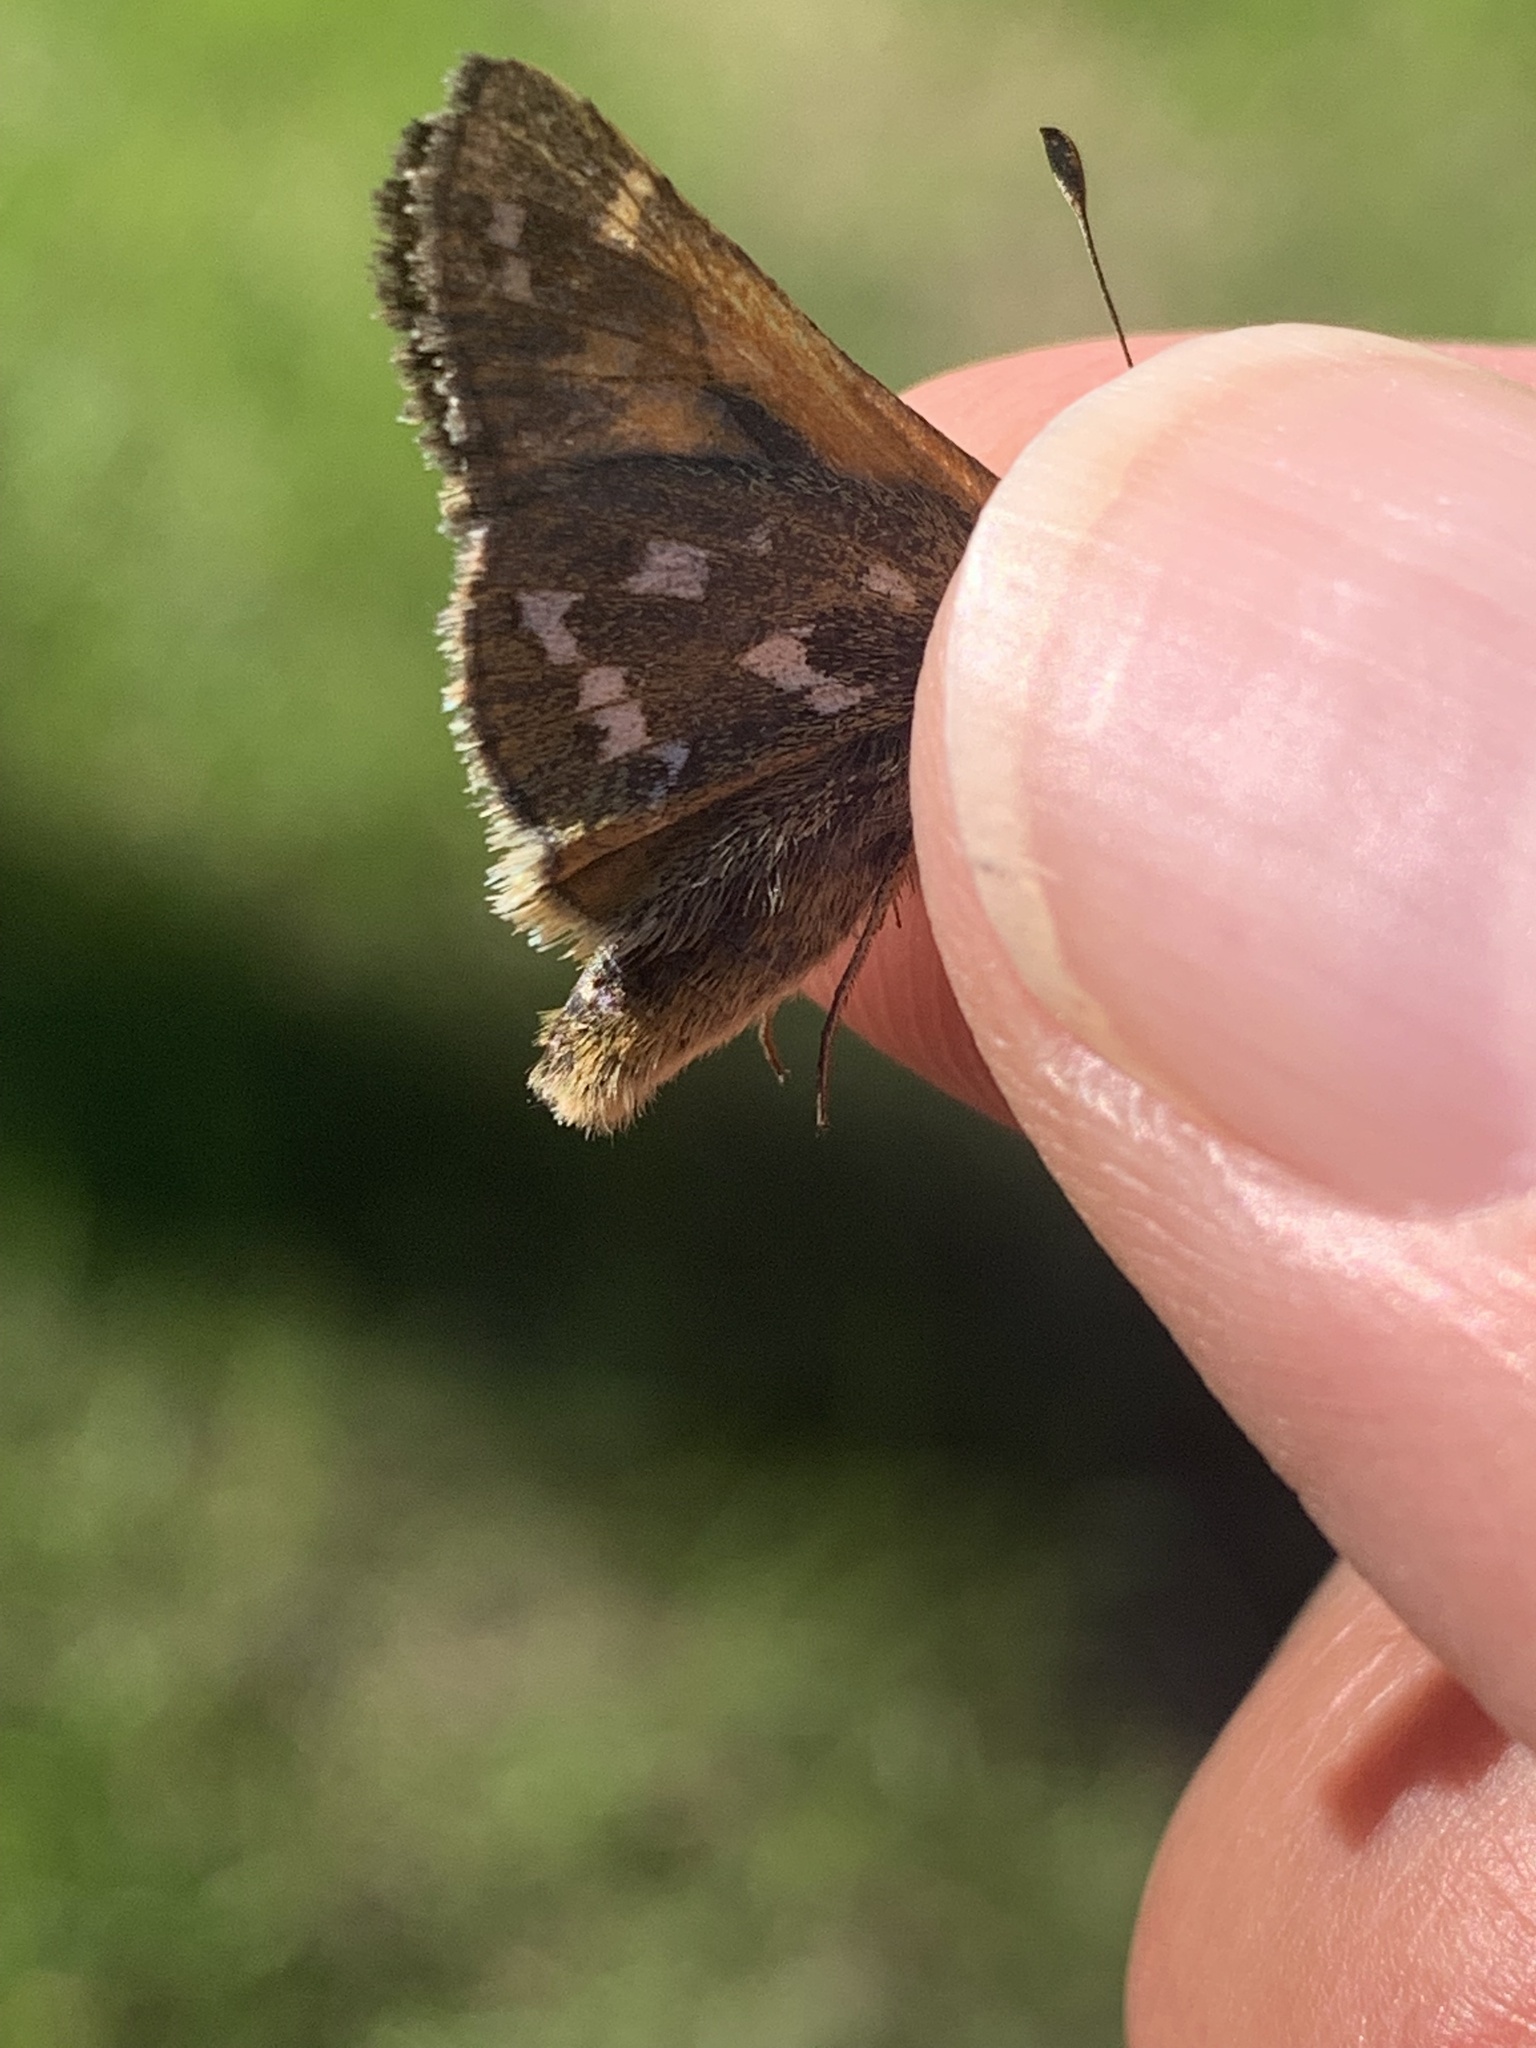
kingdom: Animalia
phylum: Arthropoda
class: Insecta
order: Lepidoptera
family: Hesperiidae
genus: Hesperia
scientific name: Hesperia comma
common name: Common branded skipper
